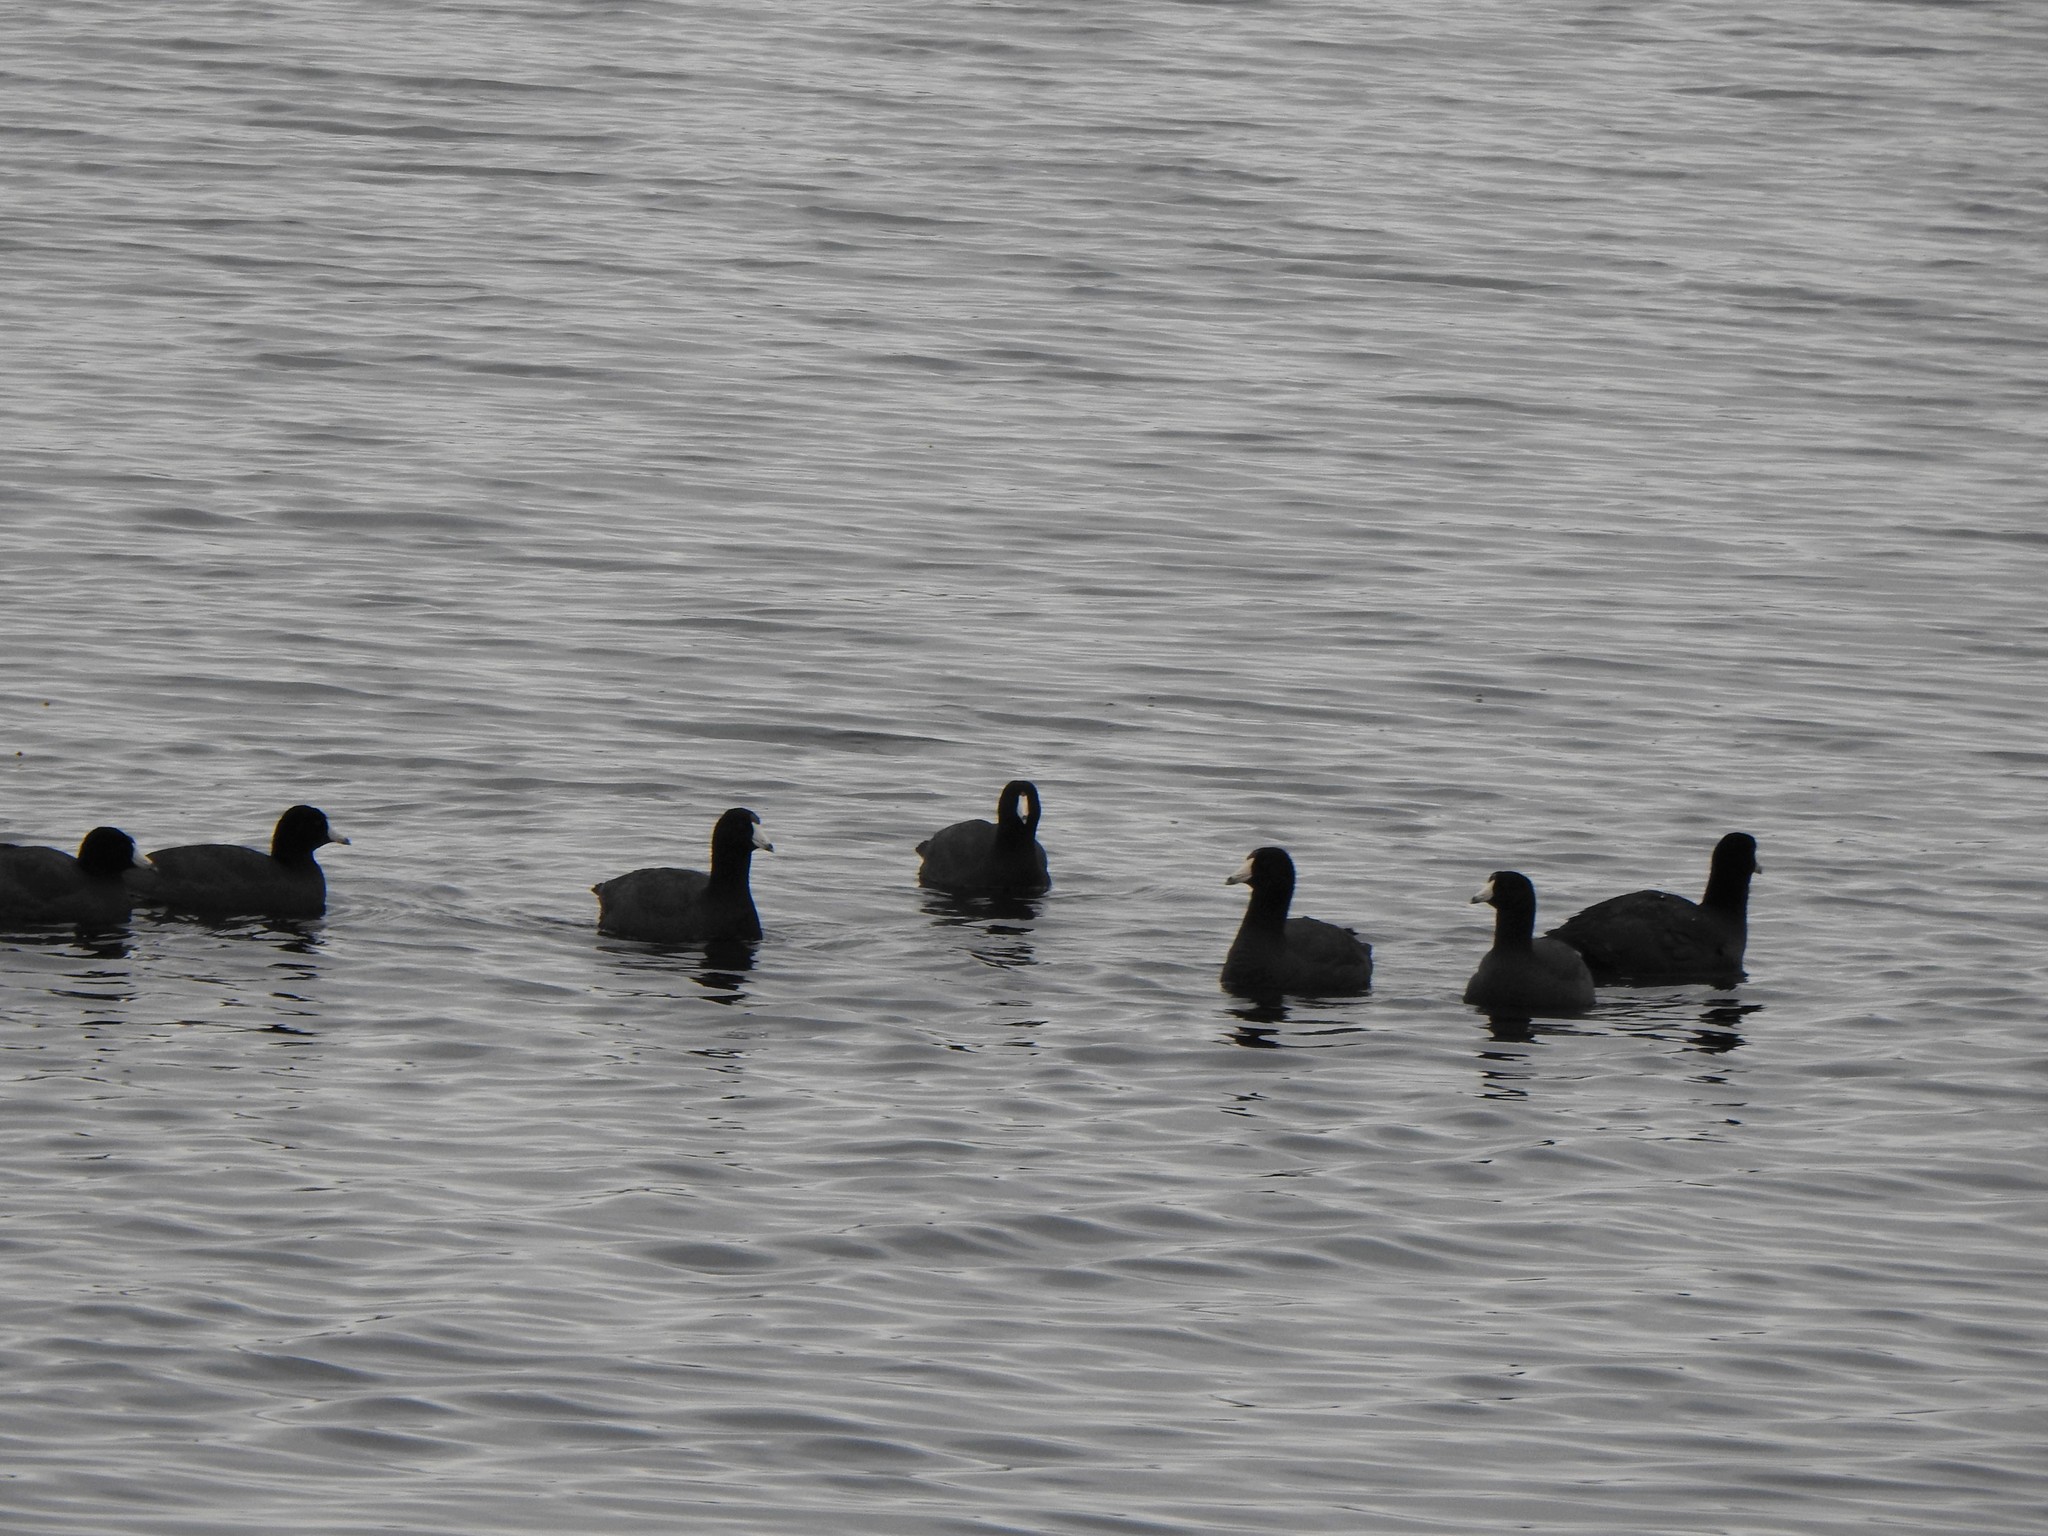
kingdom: Animalia
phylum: Chordata
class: Aves
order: Gruiformes
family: Rallidae
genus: Fulica
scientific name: Fulica americana
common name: American coot
